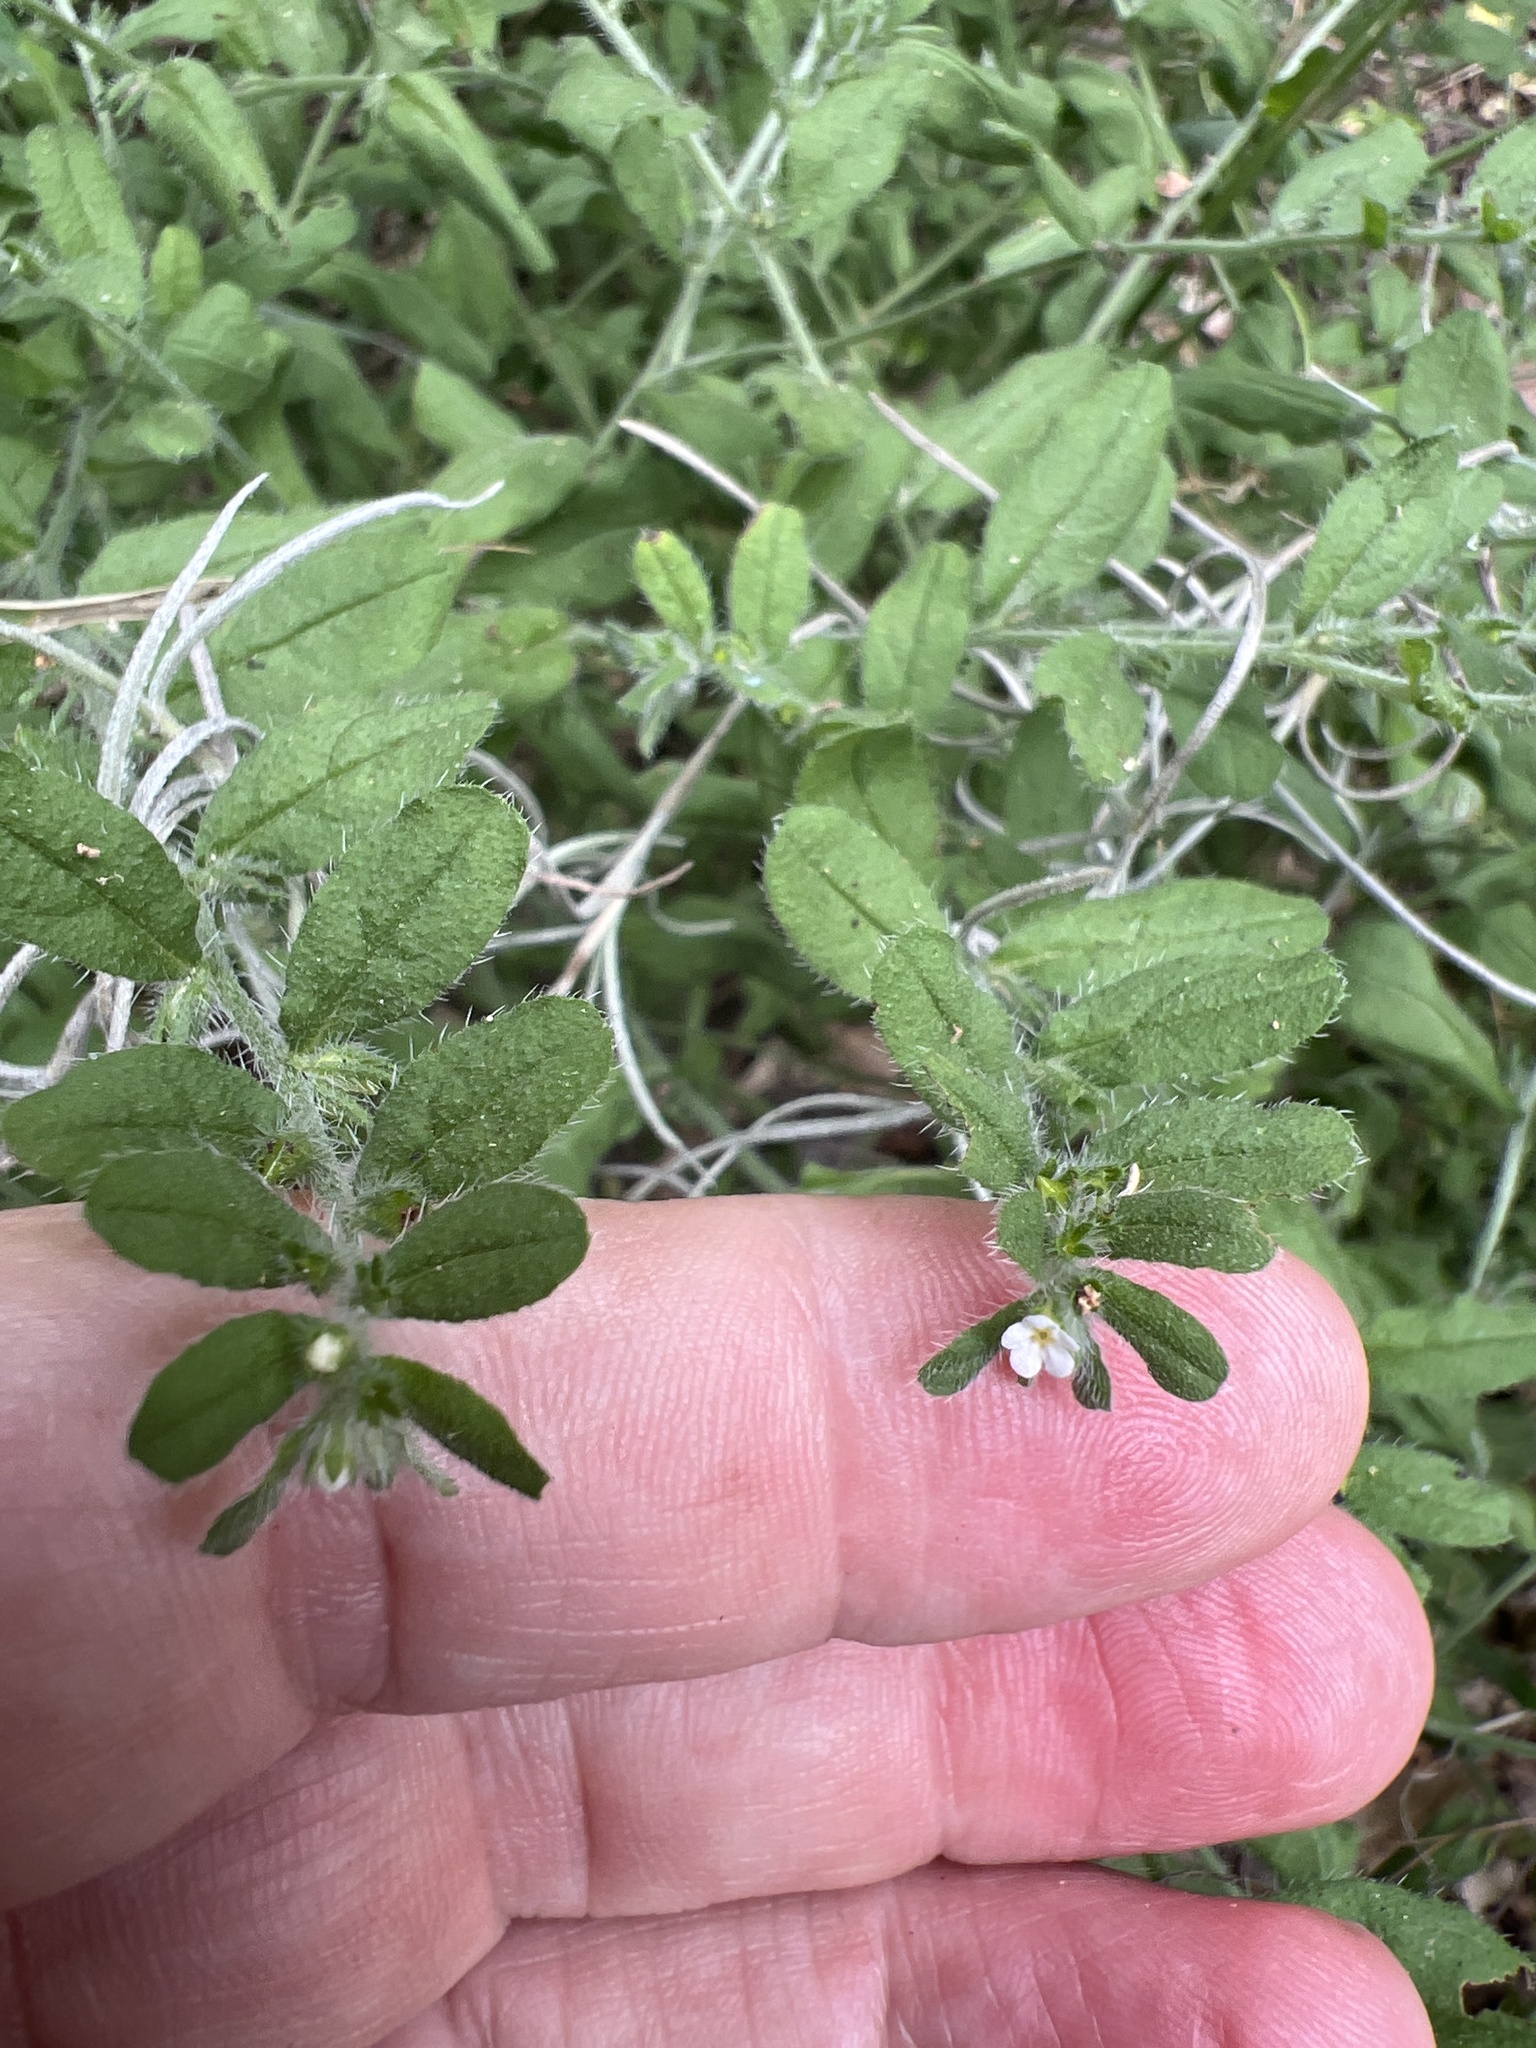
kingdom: Plantae
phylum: Tracheophyta
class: Magnoliopsida
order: Boraginales
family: Boraginaceae
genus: Lithospermum
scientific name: Lithospermum matamorense
